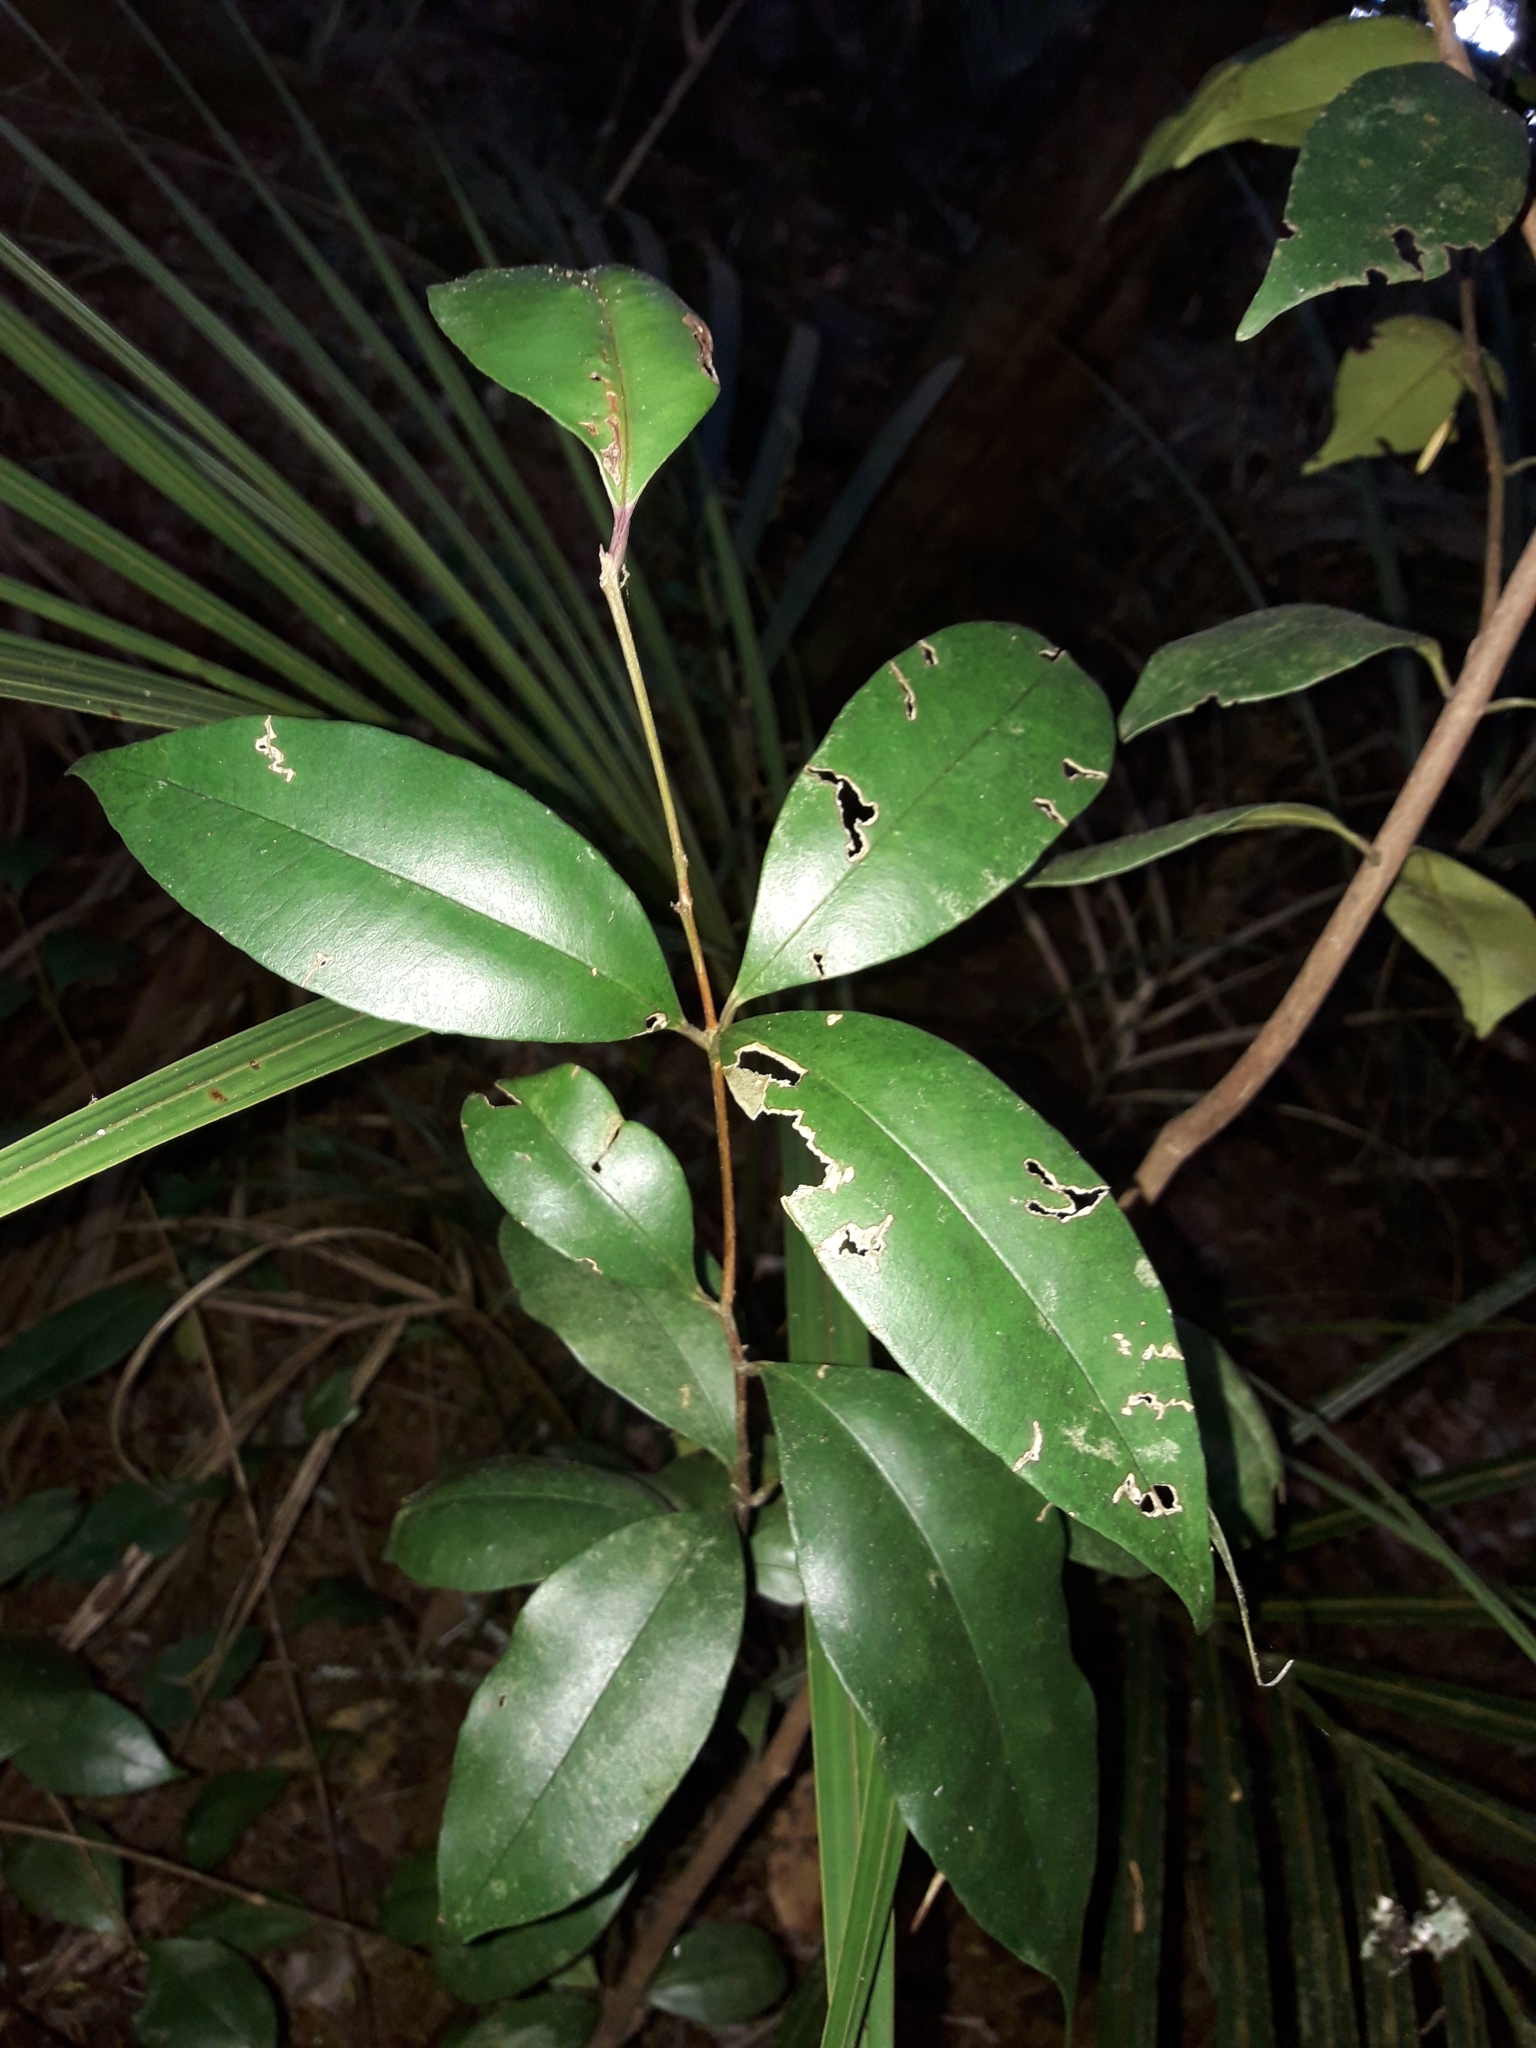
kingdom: Plantae
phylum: Tracheophyta
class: Magnoliopsida
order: Myrtales
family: Myrtaceae
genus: Syzygium
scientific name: Syzygium smithii
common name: Lilly-pilly
